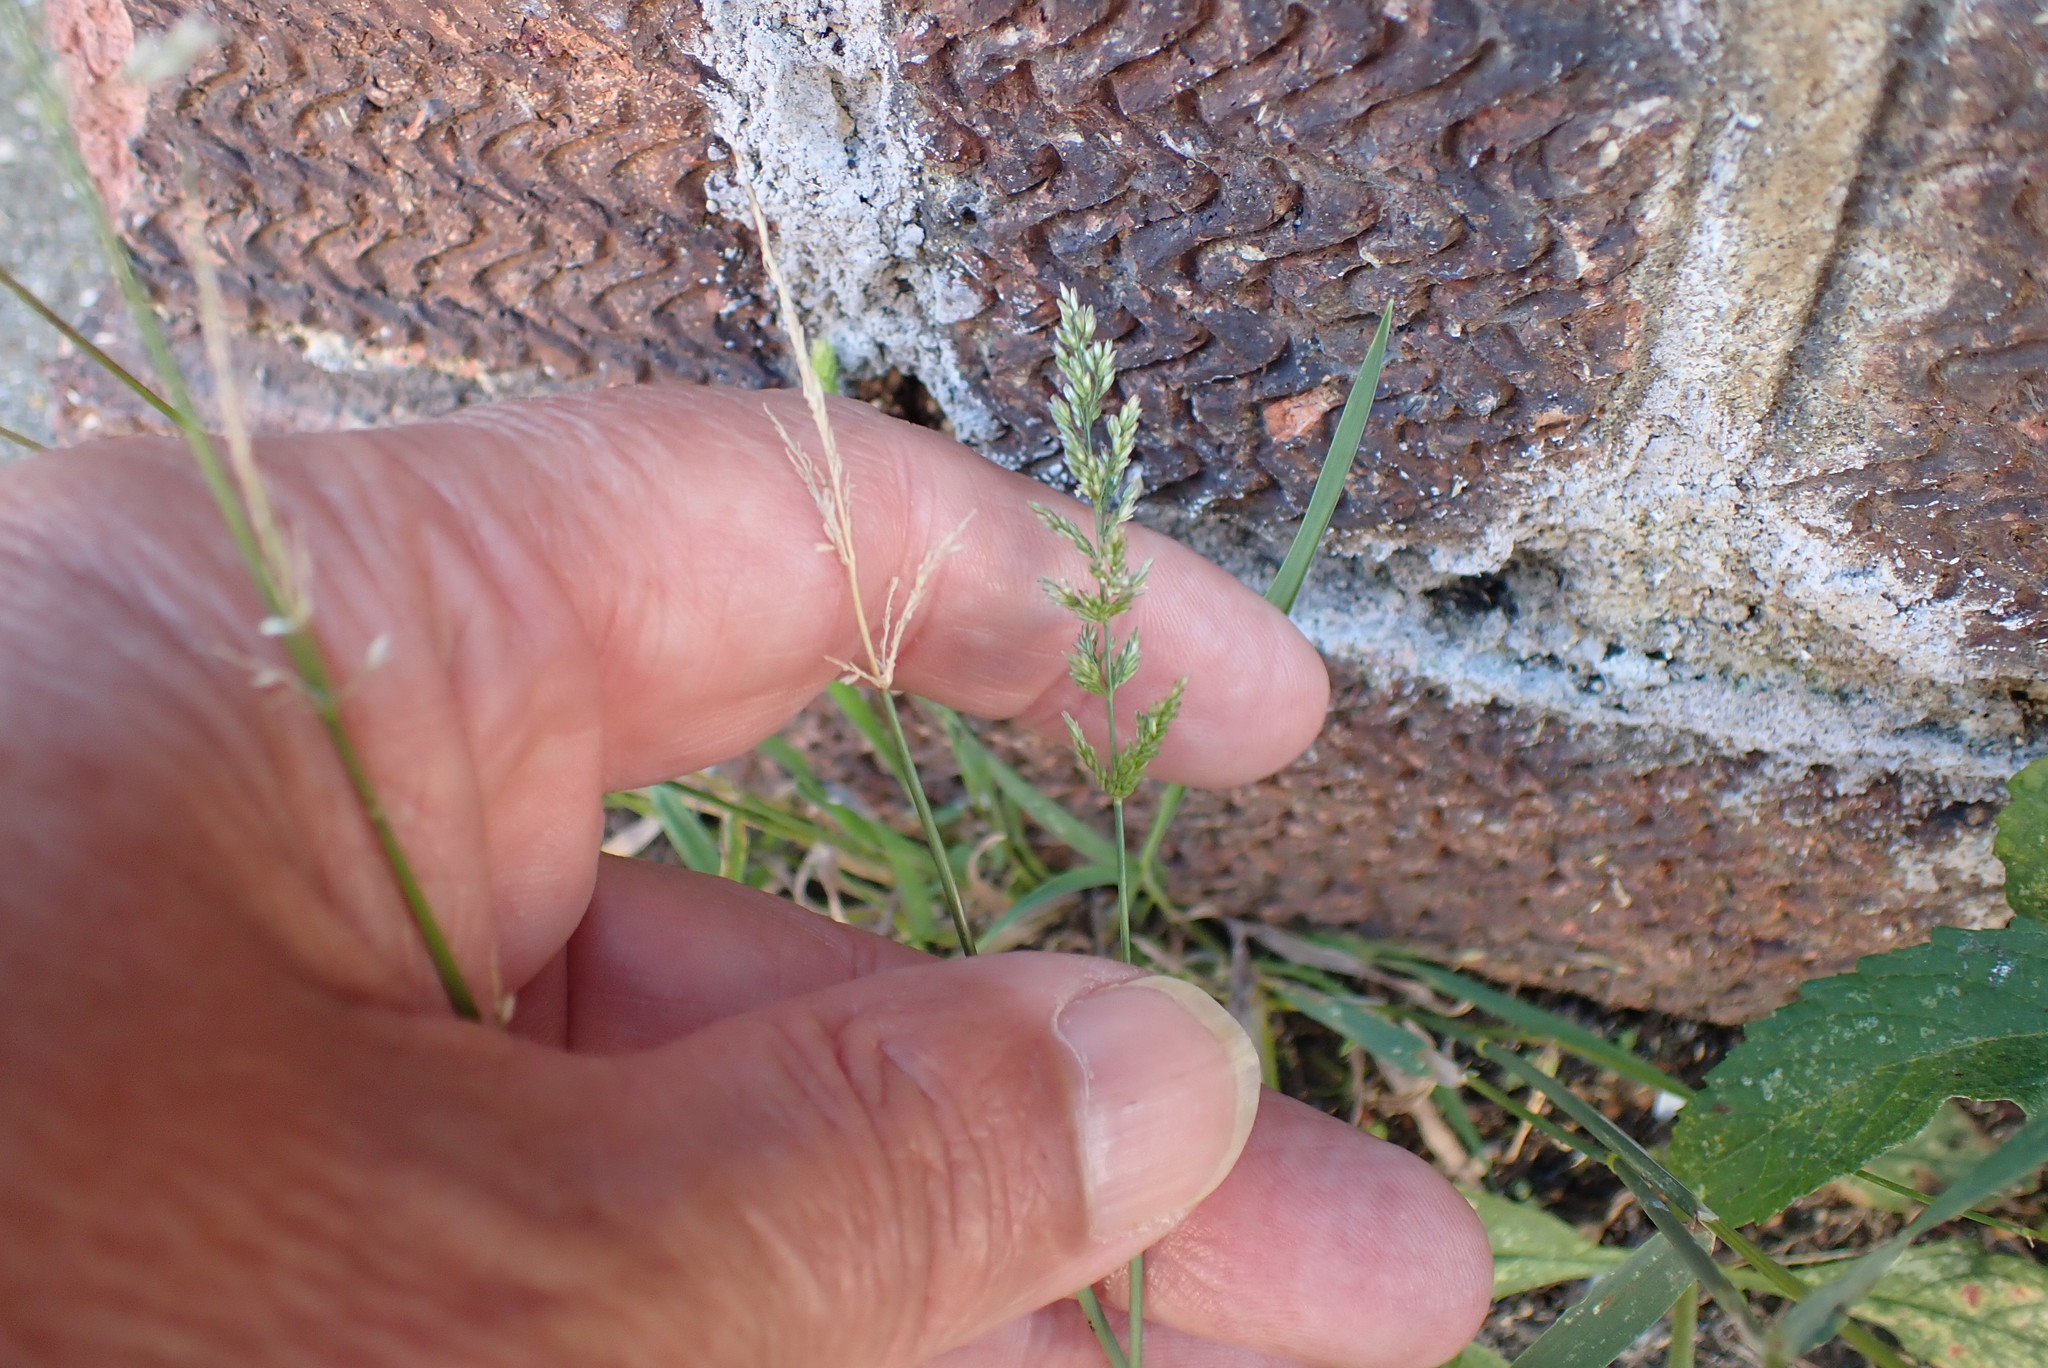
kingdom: Plantae
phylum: Tracheophyta
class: Liliopsida
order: Poales
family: Poaceae
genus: Polypogon
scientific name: Polypogon viridis
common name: Water bent
